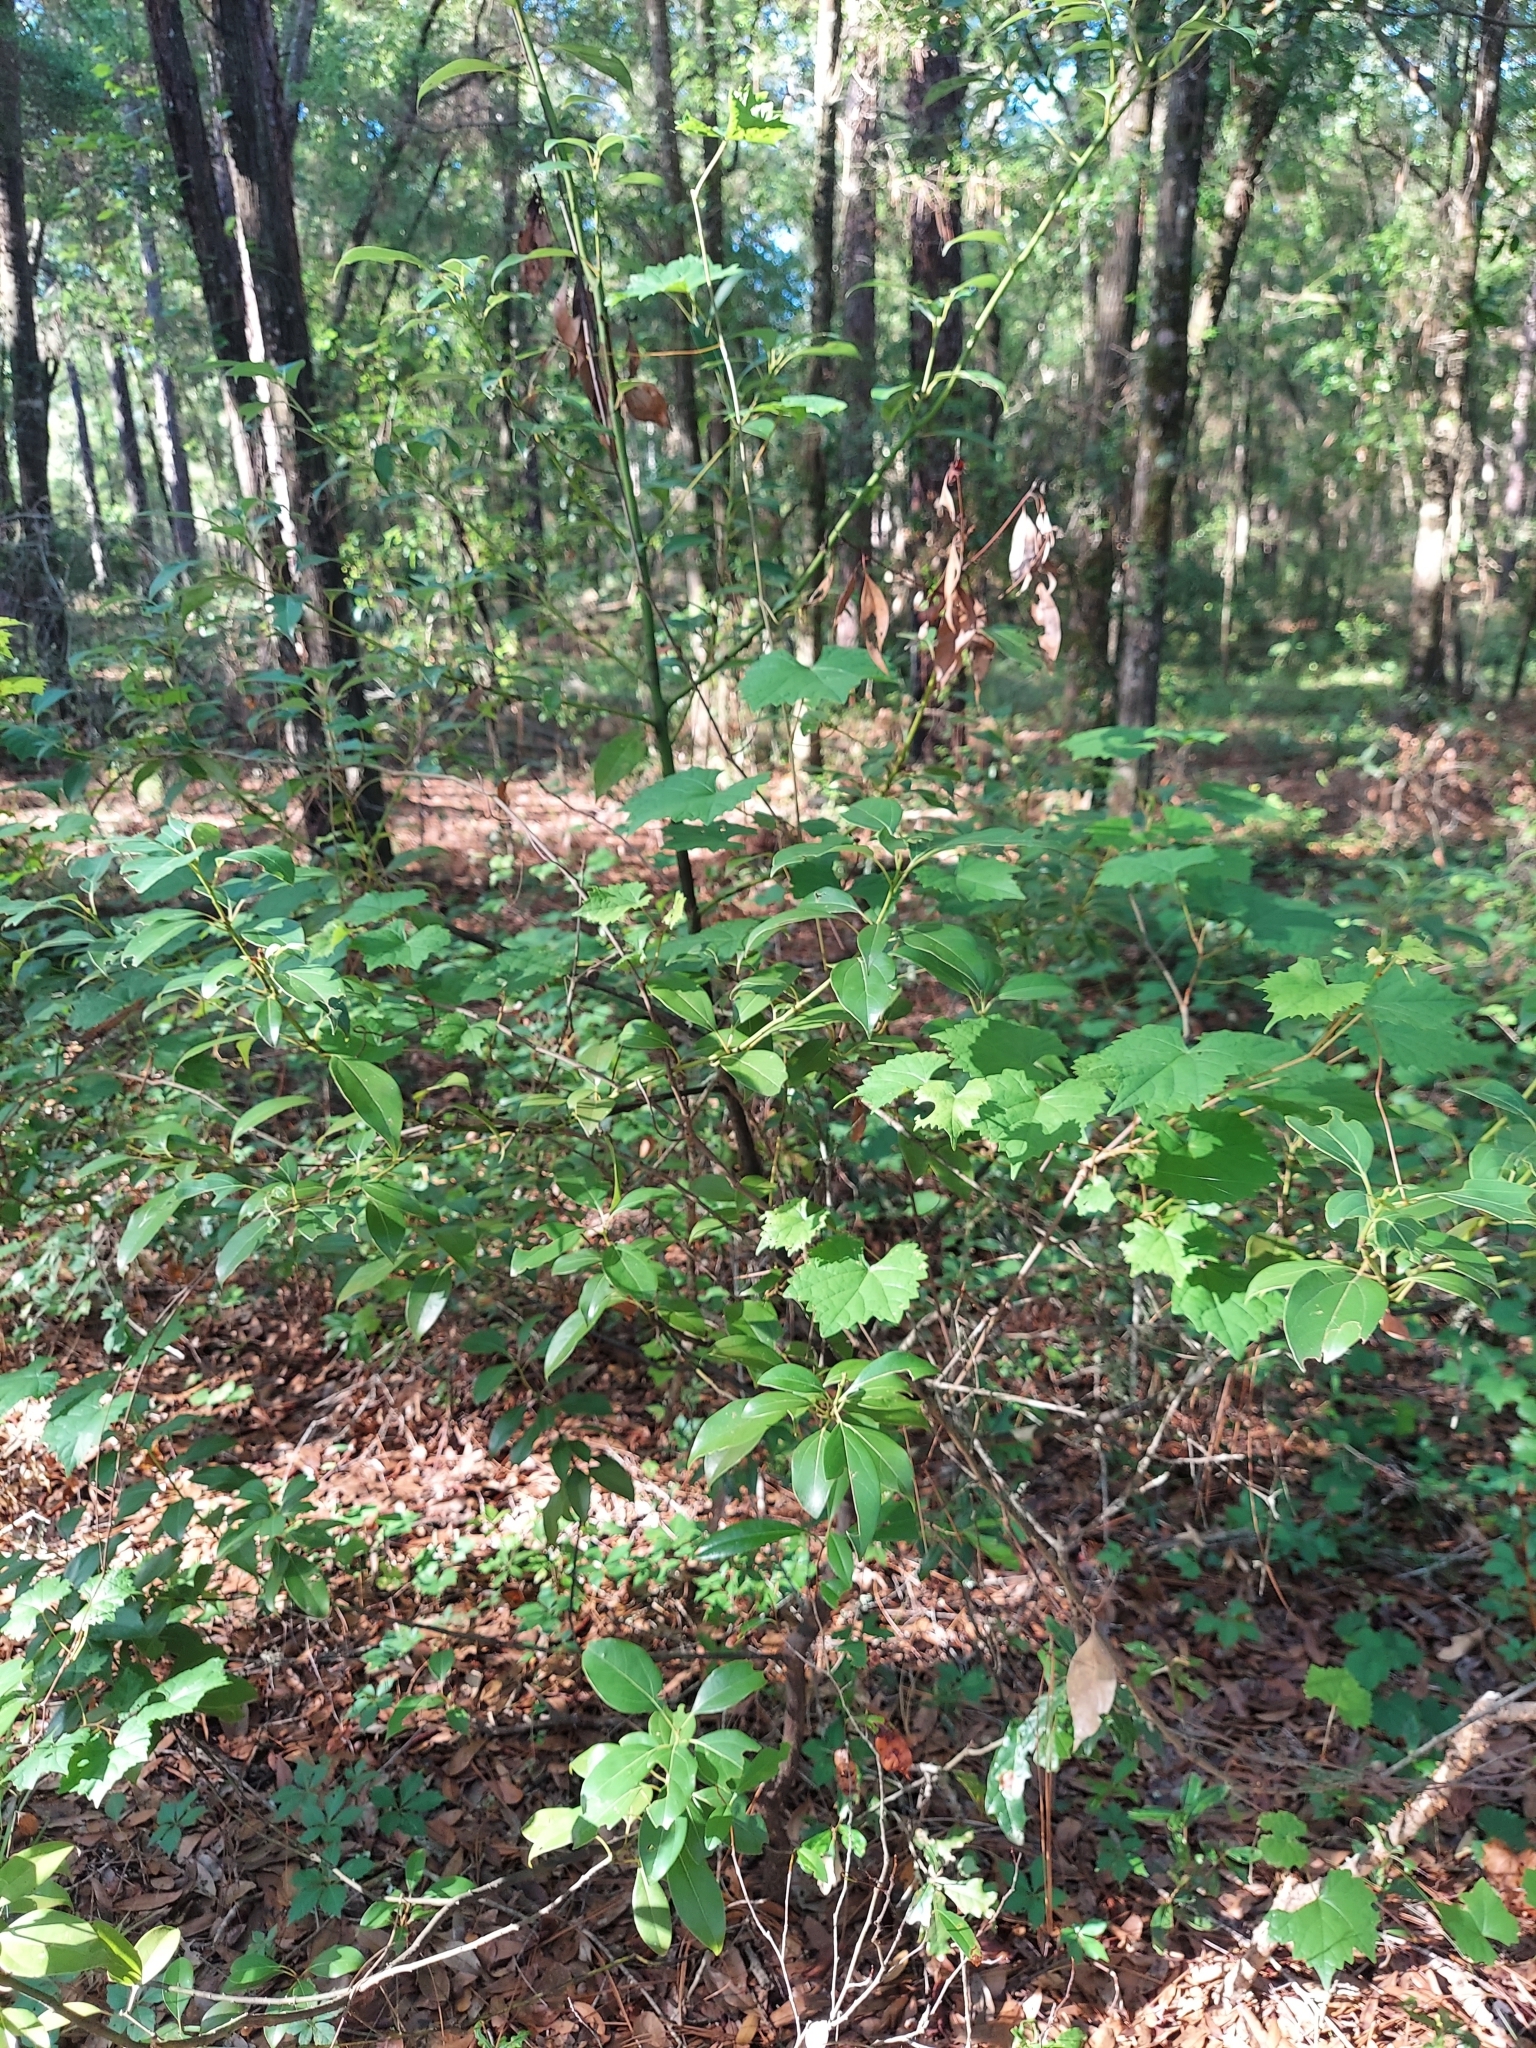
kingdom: Plantae
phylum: Tracheophyta
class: Magnoliopsida
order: Laurales
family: Lauraceae
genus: Cinnamomum
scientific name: Cinnamomum camphora
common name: Camphortree
